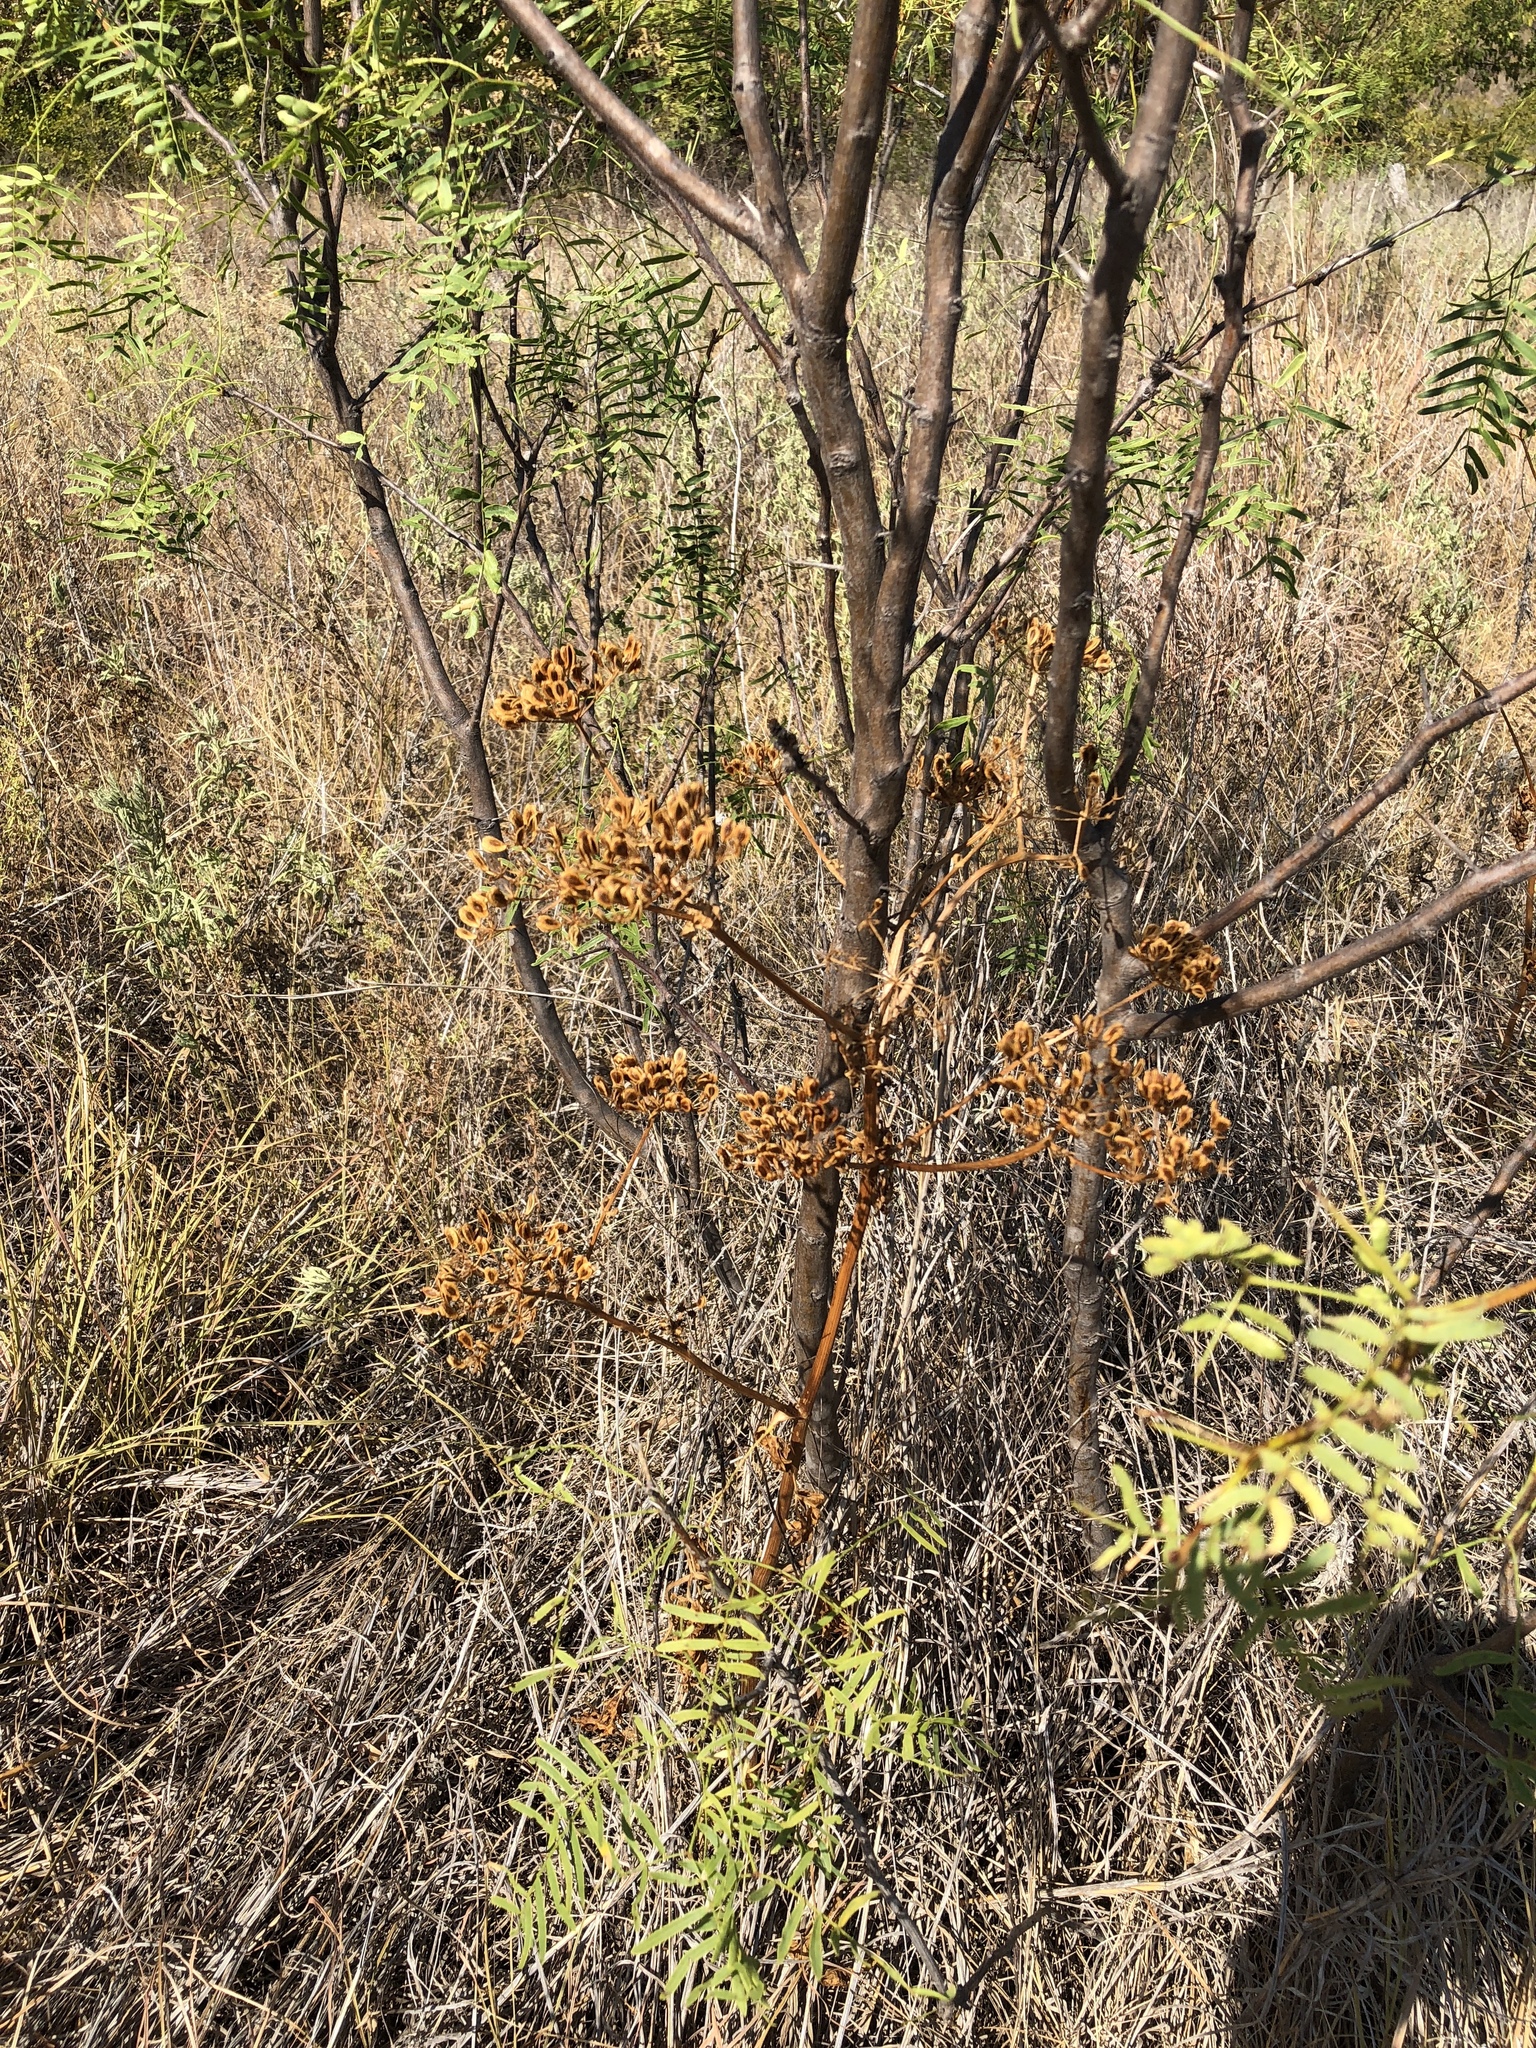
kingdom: Plantae
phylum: Tracheophyta
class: Magnoliopsida
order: Apiales
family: Apiaceae
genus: Polytaenia
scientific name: Polytaenia texana
